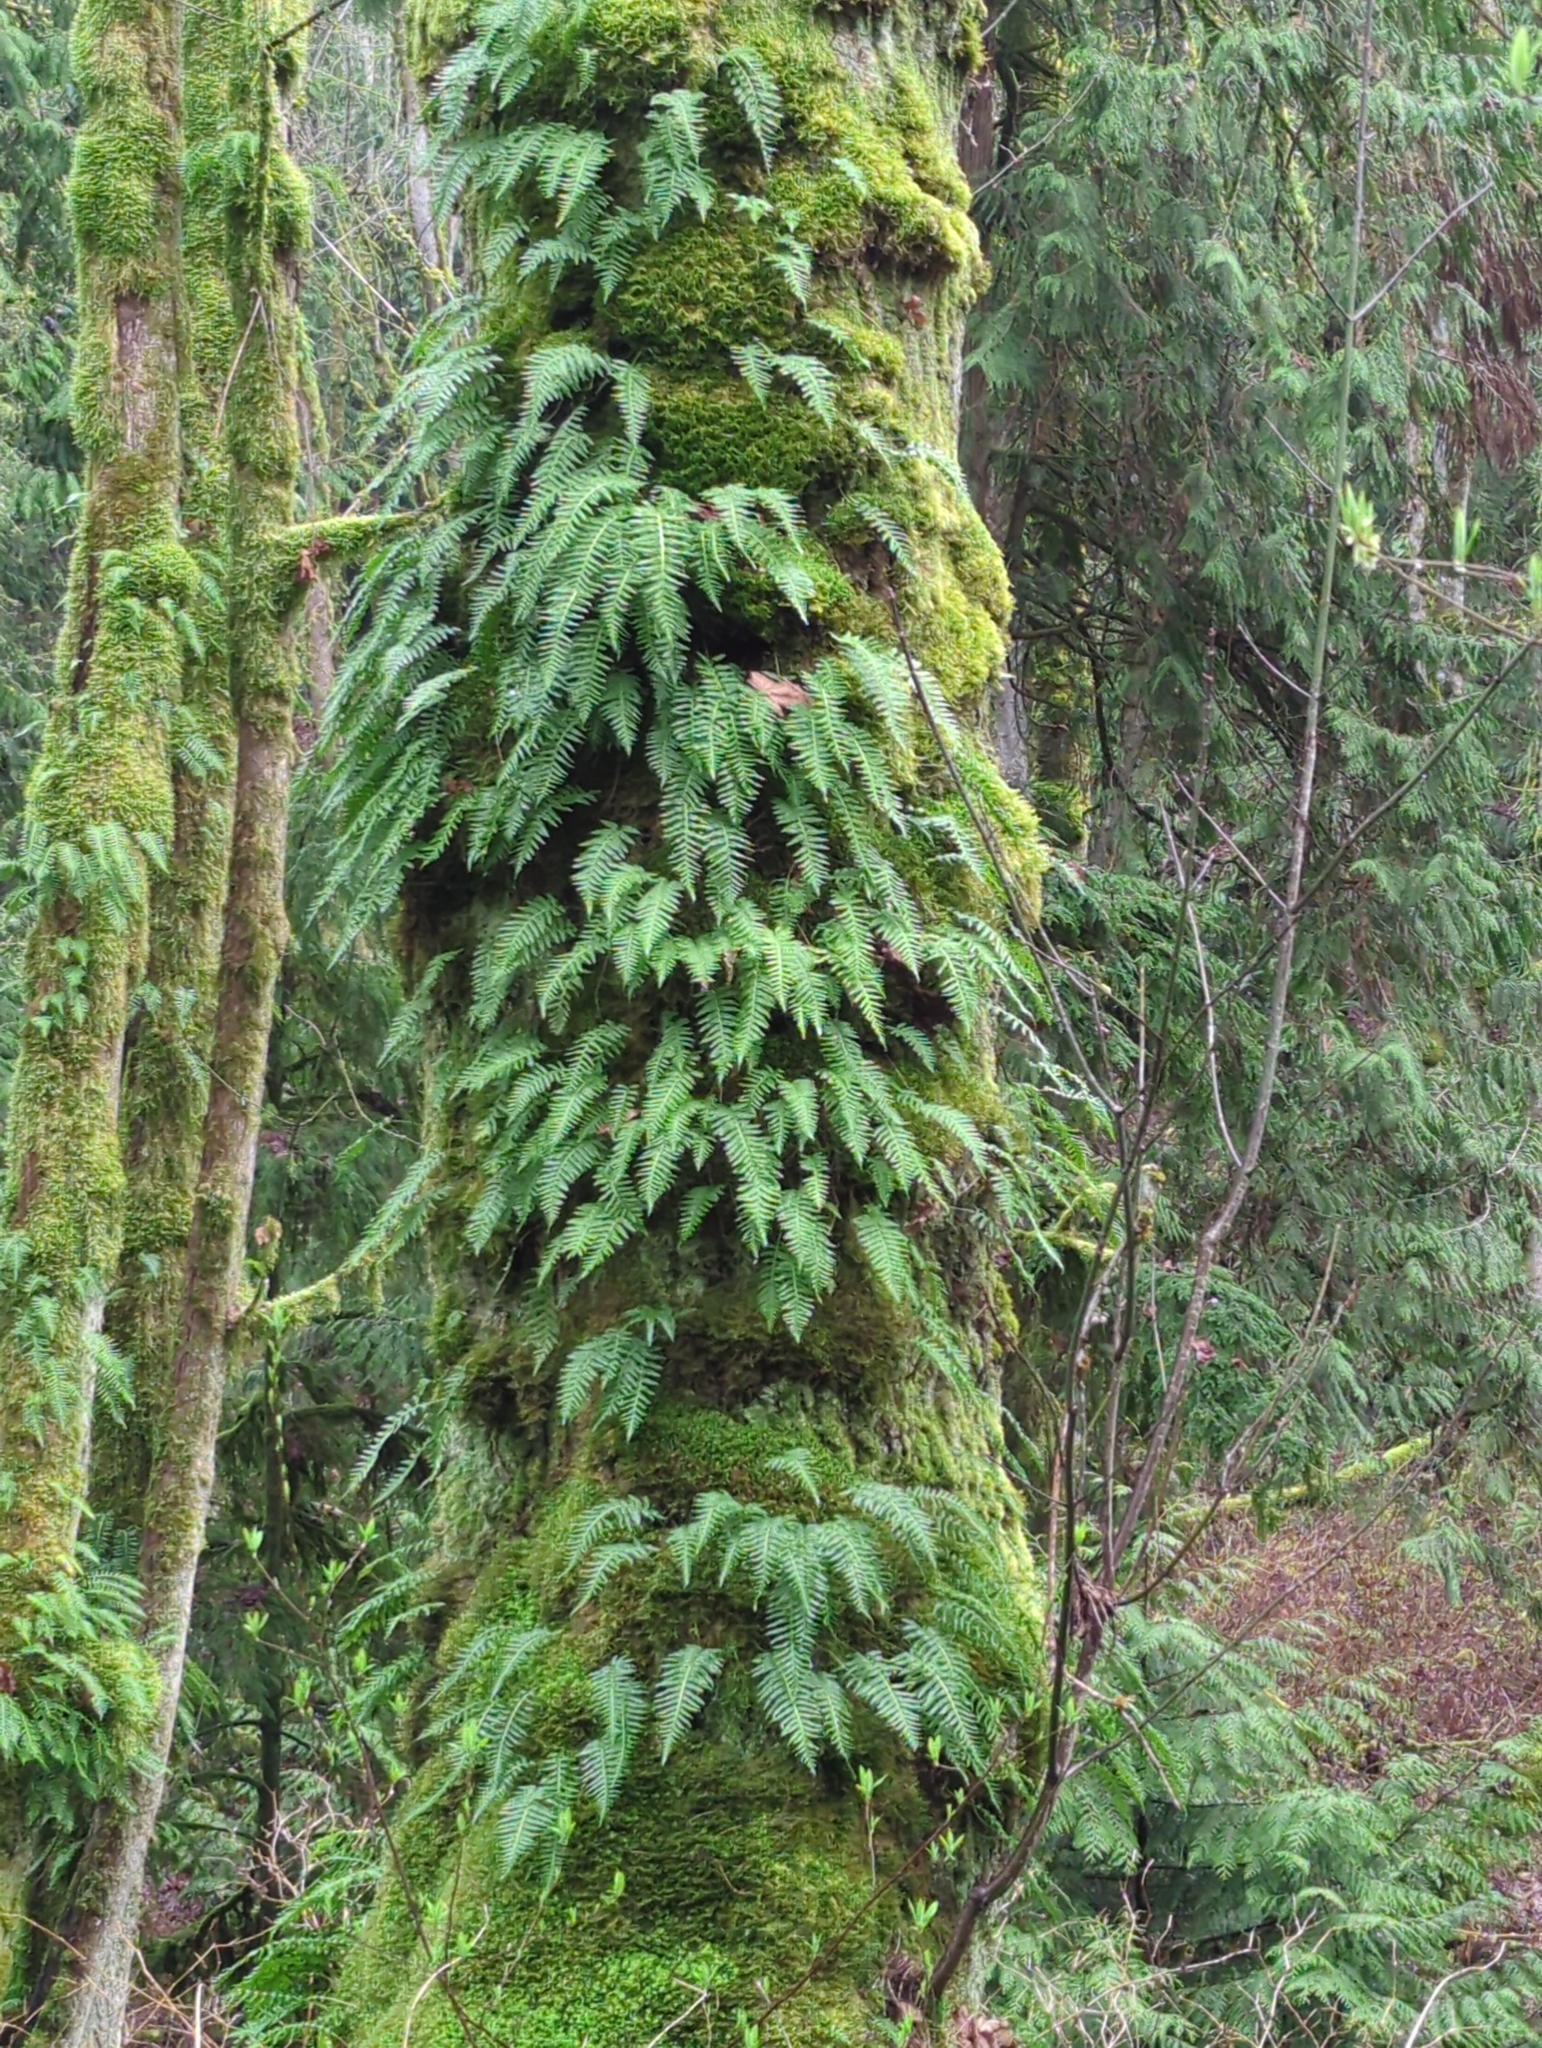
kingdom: Plantae
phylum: Tracheophyta
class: Polypodiopsida
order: Polypodiales
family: Polypodiaceae
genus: Polypodium
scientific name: Polypodium glycyrrhiza
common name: Licorice fern
